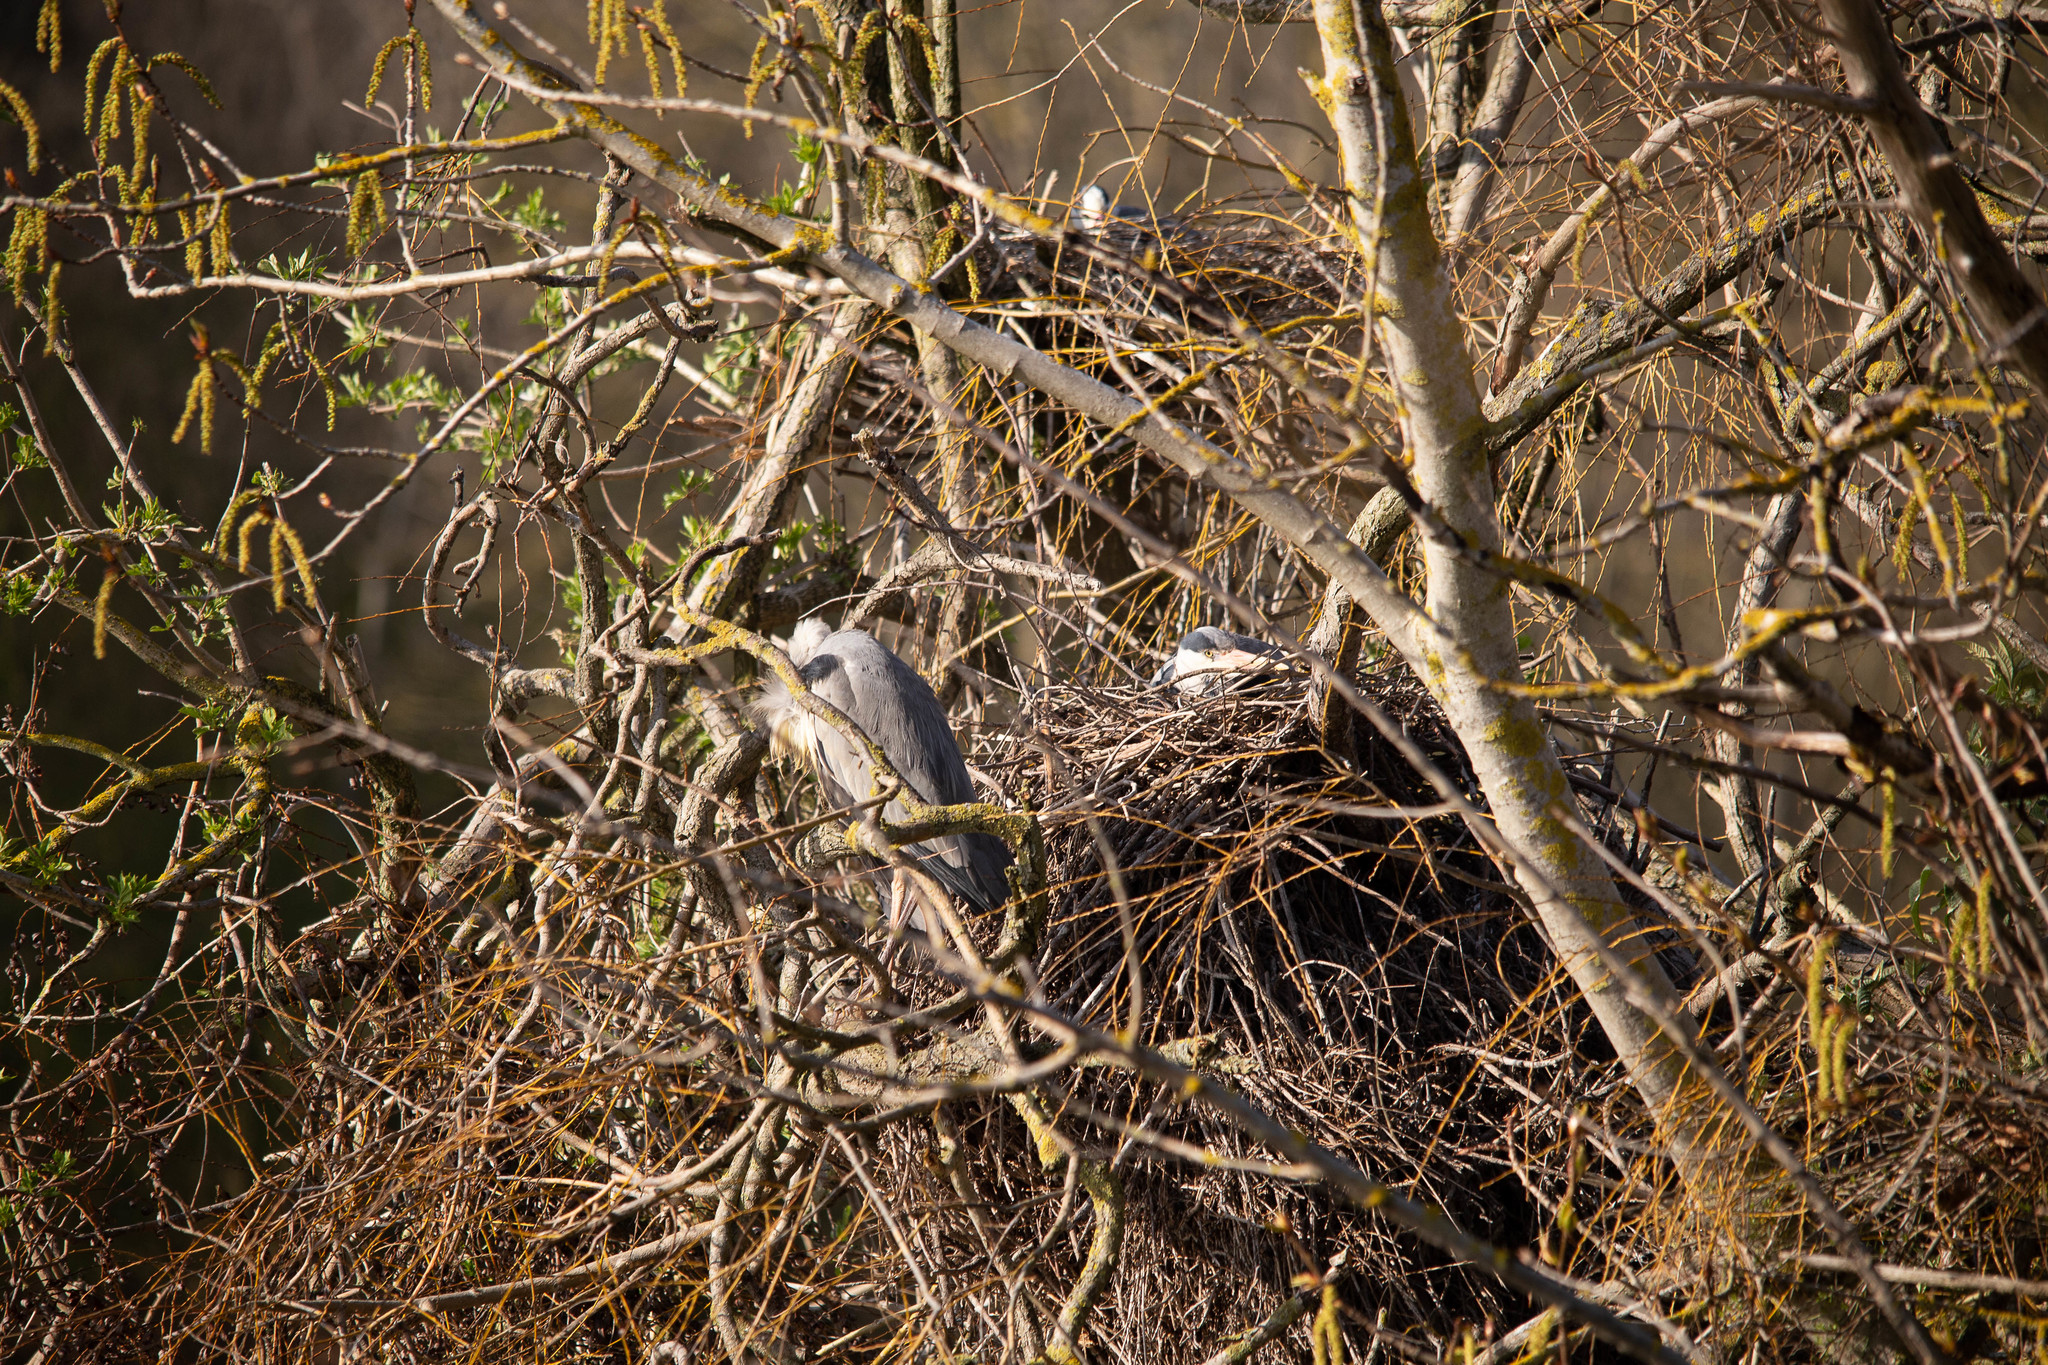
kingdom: Animalia
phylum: Chordata
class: Aves
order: Pelecaniformes
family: Ardeidae
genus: Ardea
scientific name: Ardea cinerea
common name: Grey heron
